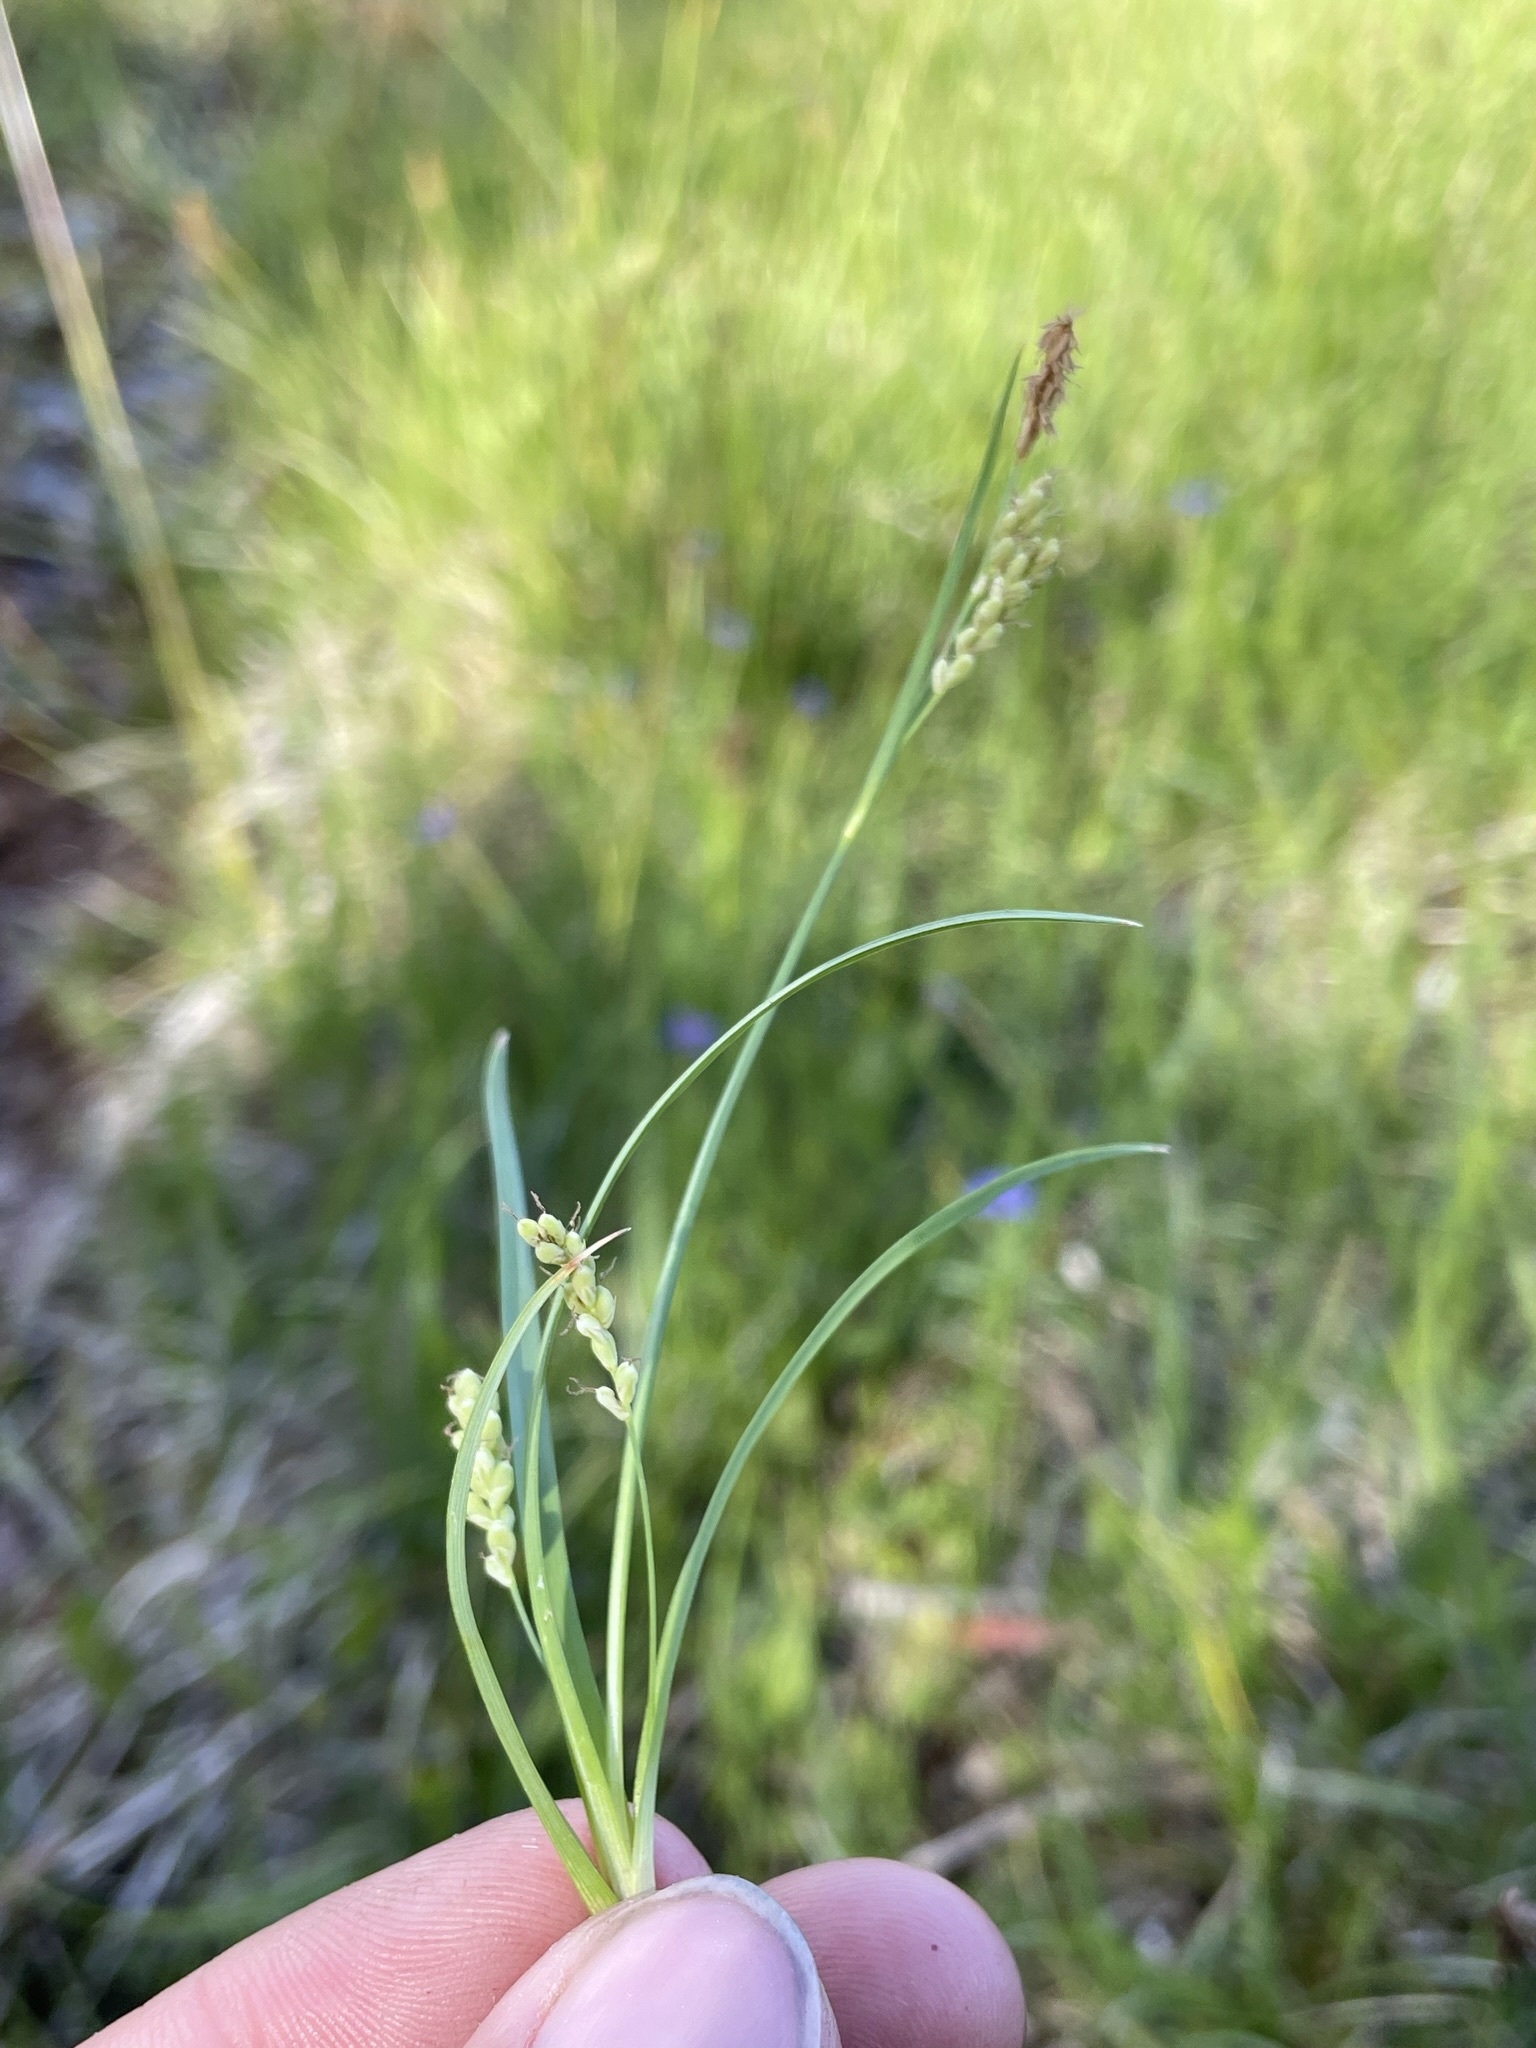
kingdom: Plantae
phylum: Tracheophyta
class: Liliopsida
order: Poales
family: Cyperaceae
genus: Carex
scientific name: Carex aurea
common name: Golden sedge
